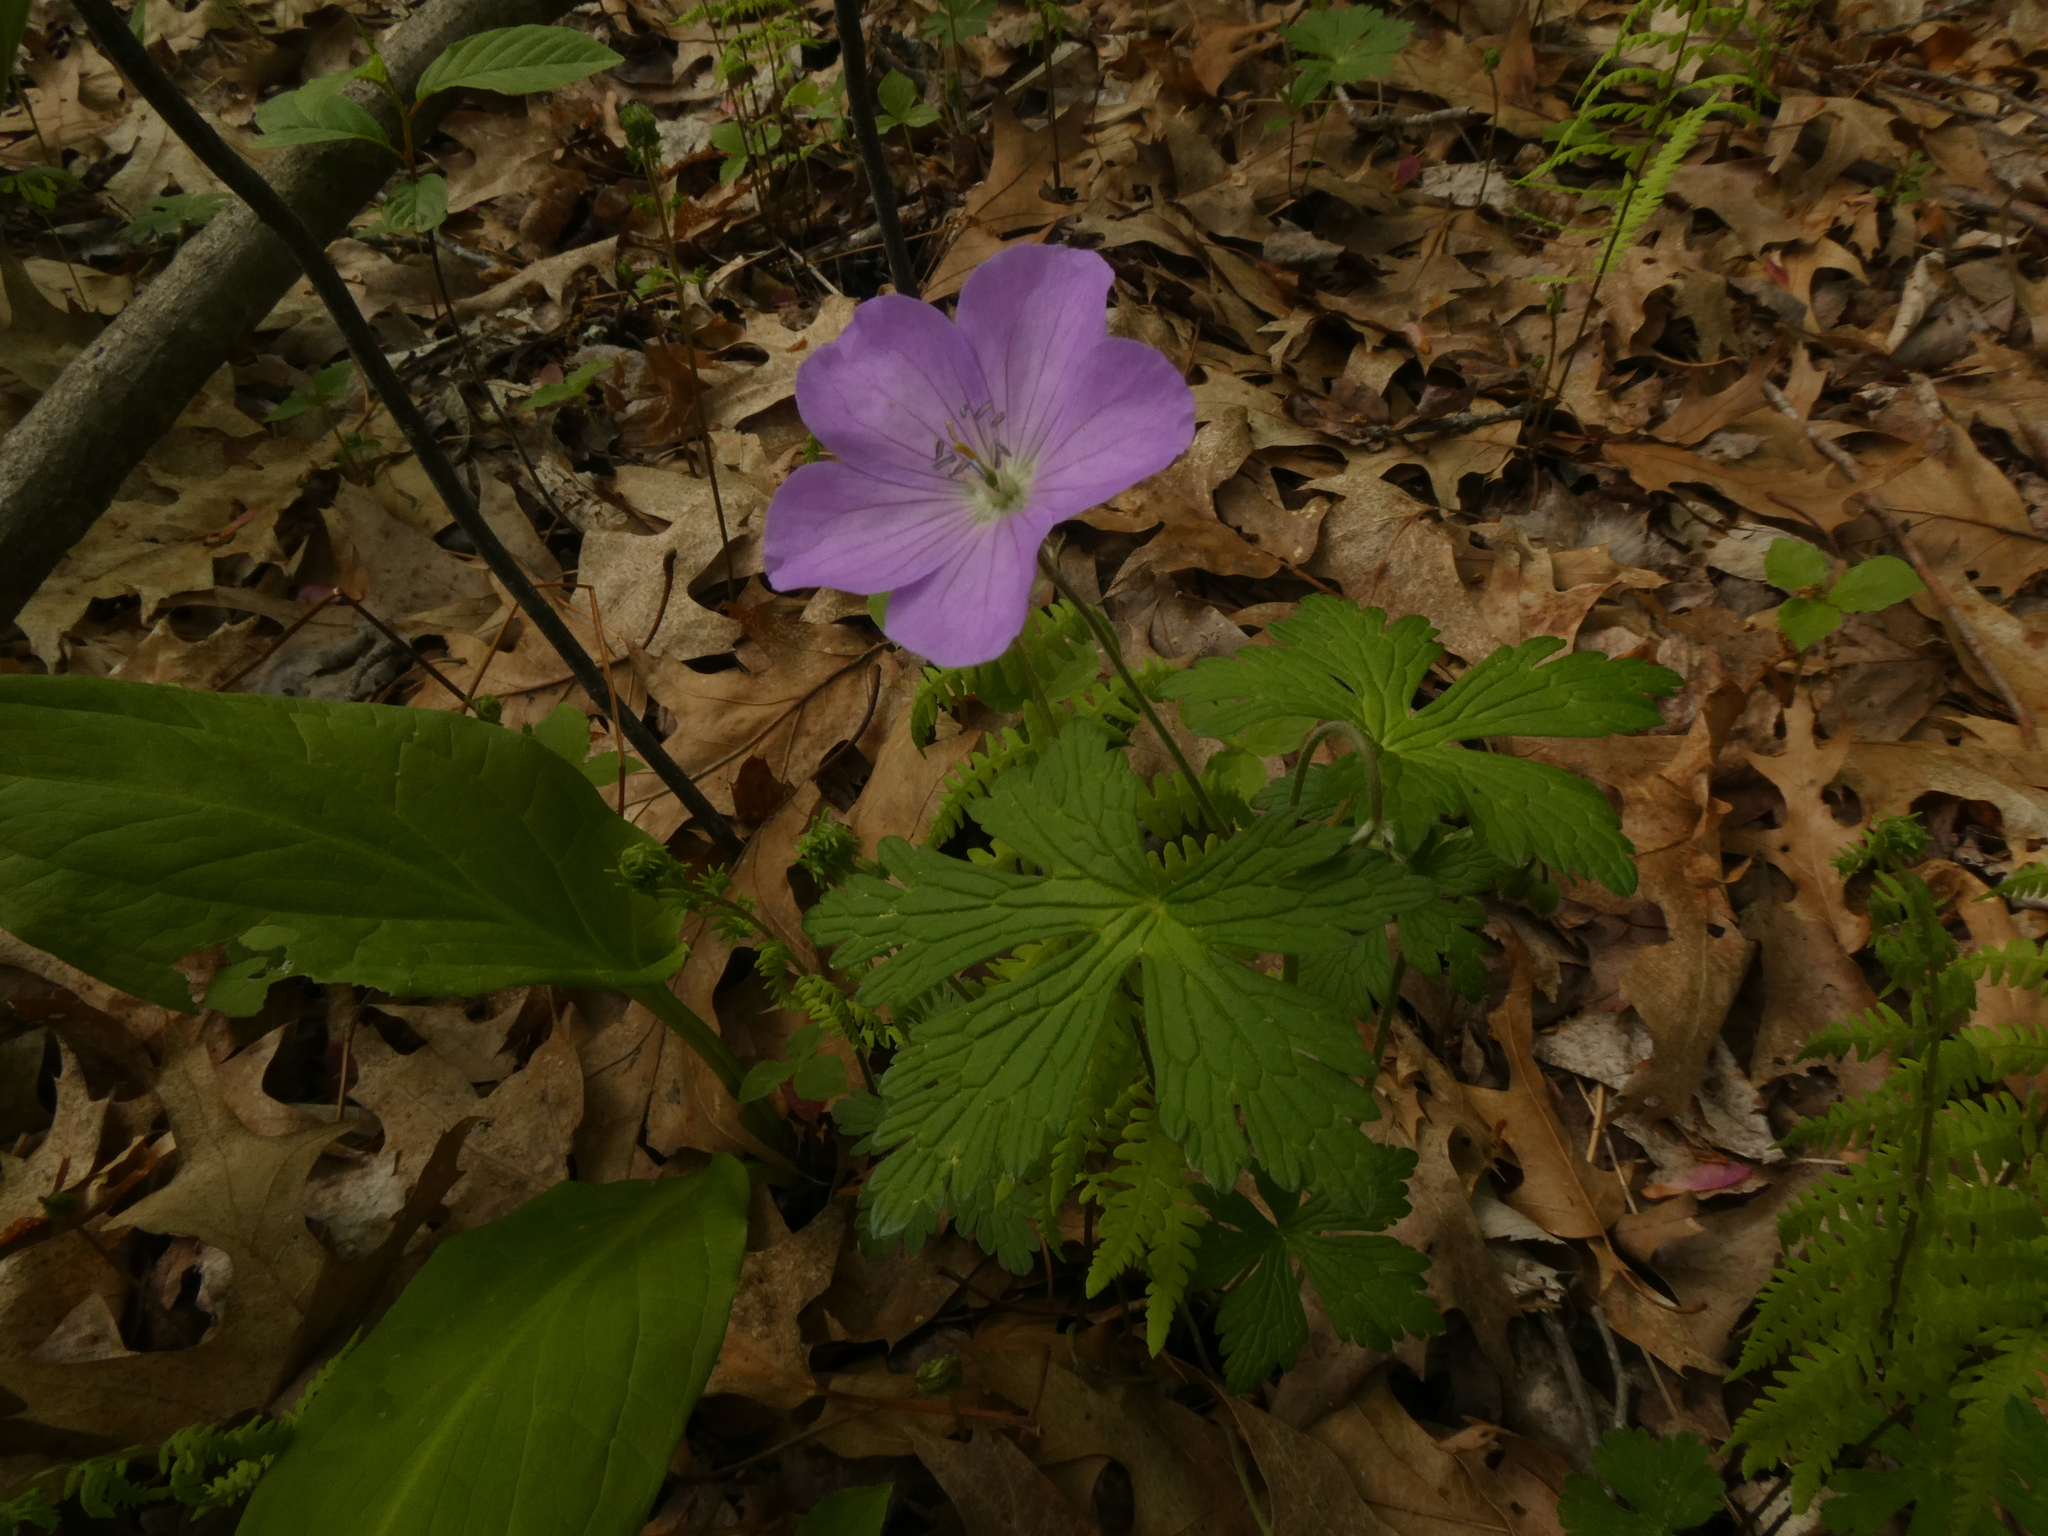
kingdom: Plantae
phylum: Tracheophyta
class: Magnoliopsida
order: Geraniales
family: Geraniaceae
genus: Geranium
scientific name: Geranium maculatum
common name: Spotted geranium
